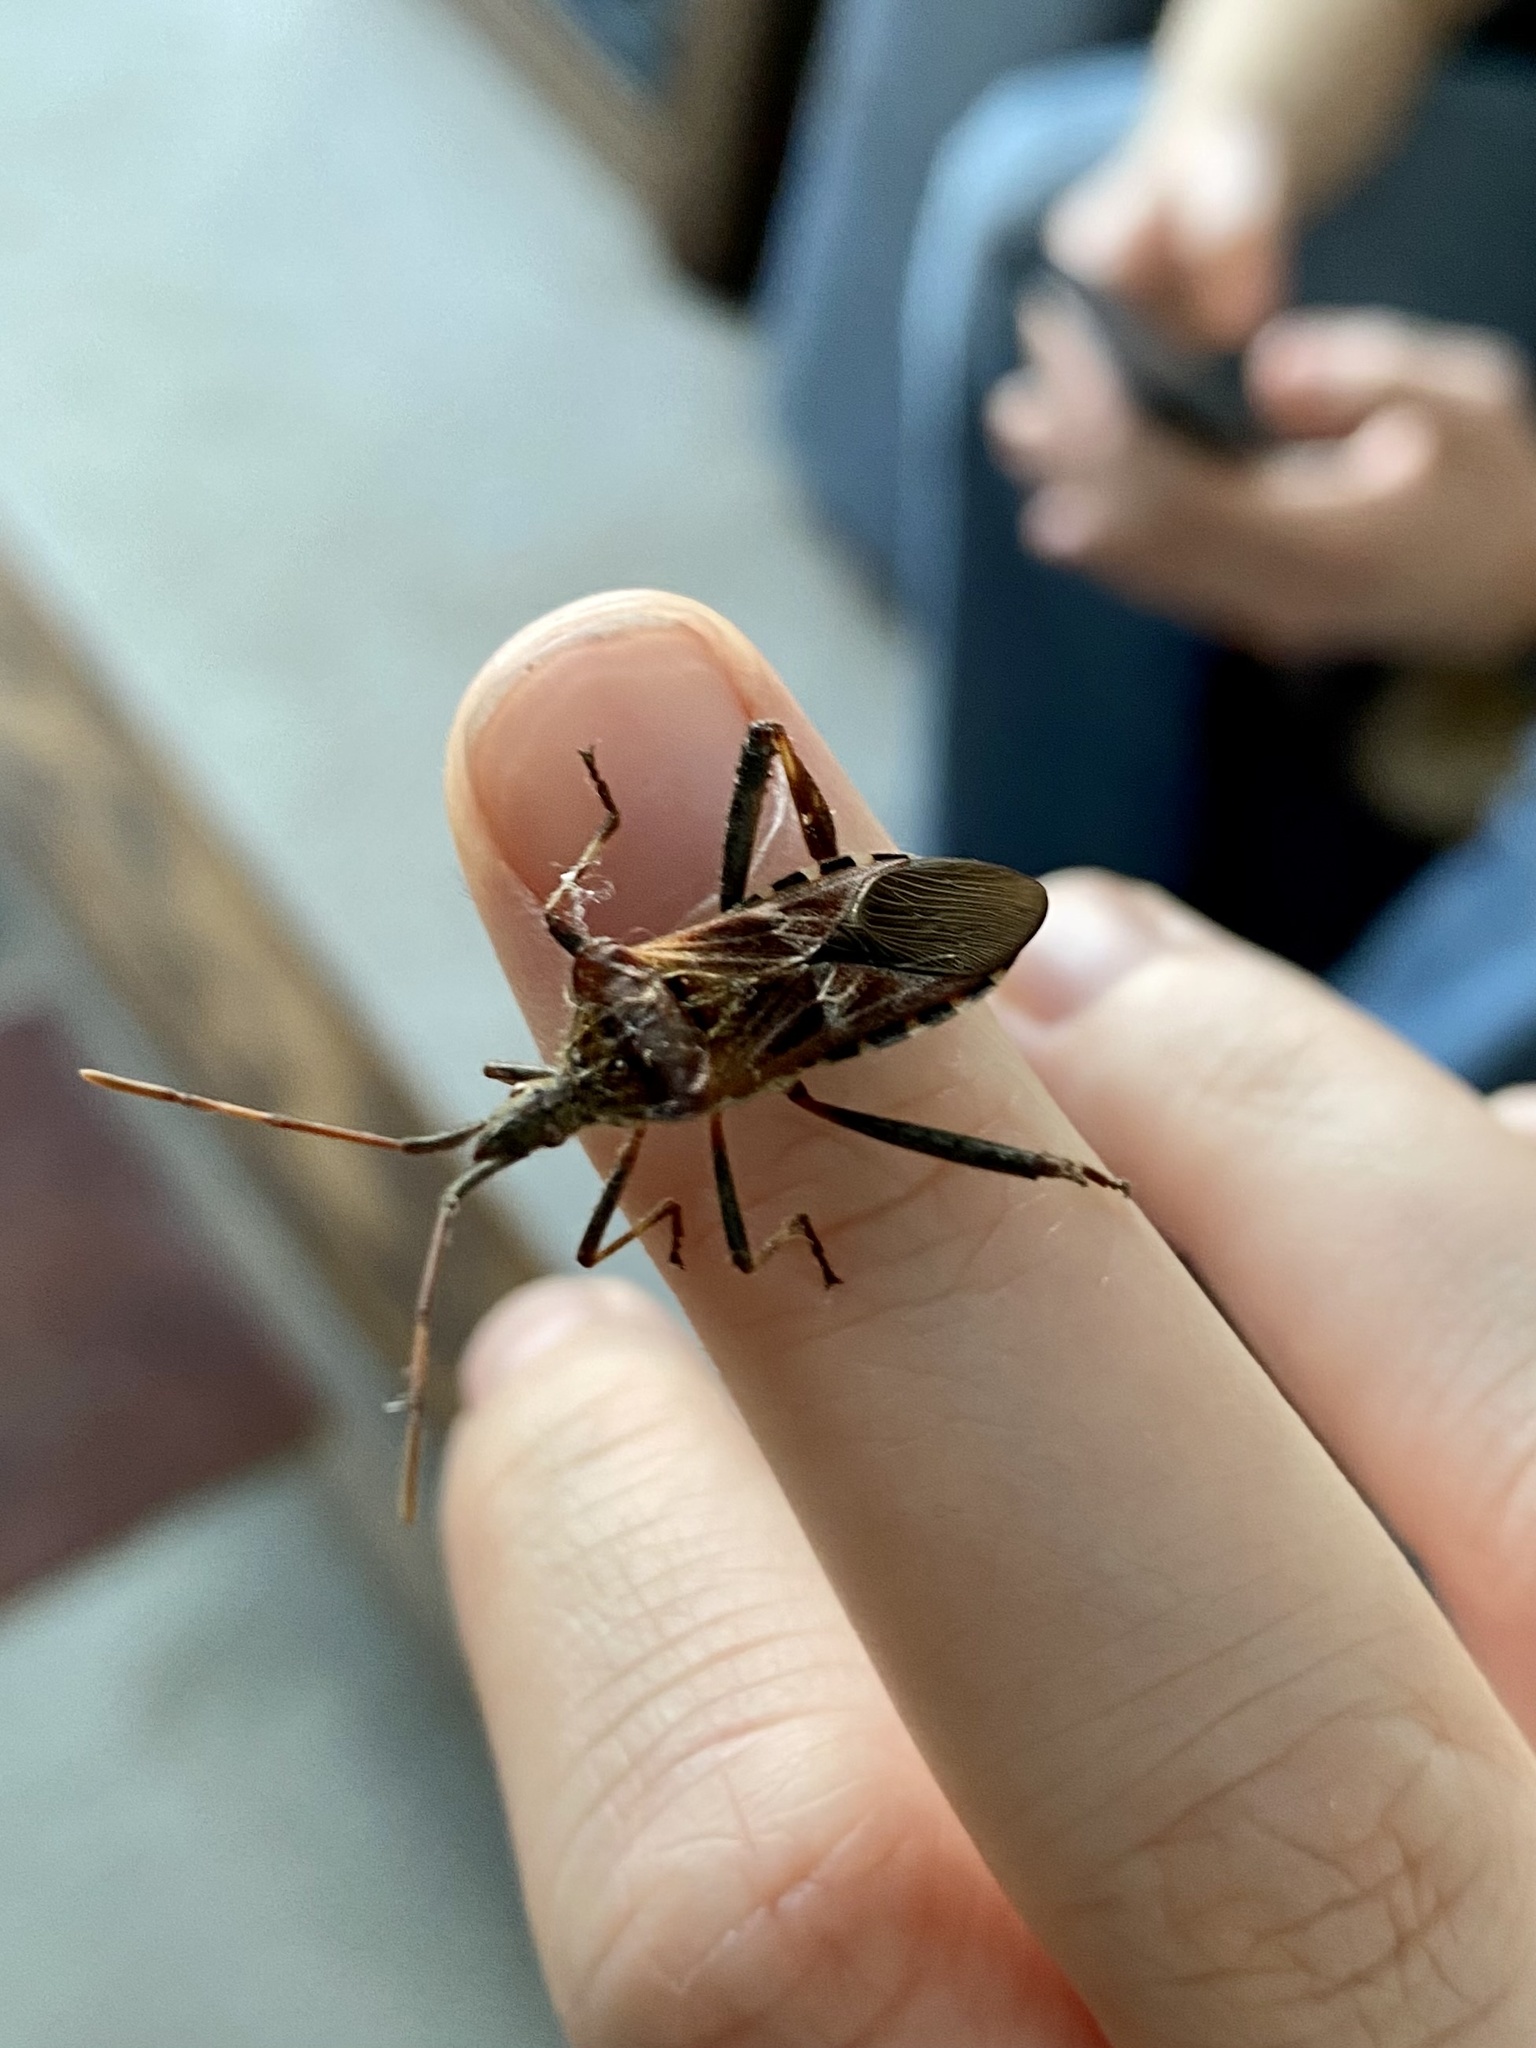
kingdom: Animalia
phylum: Arthropoda
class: Insecta
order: Hemiptera
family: Coreidae
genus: Leptoglossus
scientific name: Leptoglossus occidentalis
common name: Western conifer-seed bug
